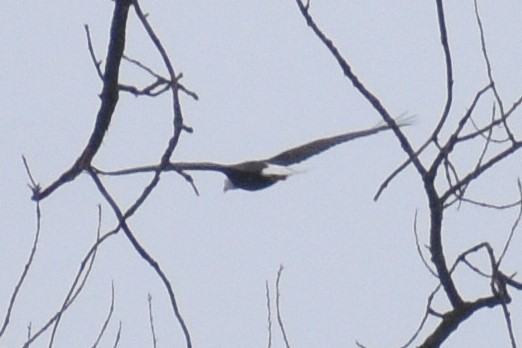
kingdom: Animalia
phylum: Chordata
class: Aves
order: Accipitriformes
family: Accipitridae
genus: Haliaeetus
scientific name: Haliaeetus leucocephalus
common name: Bald eagle
